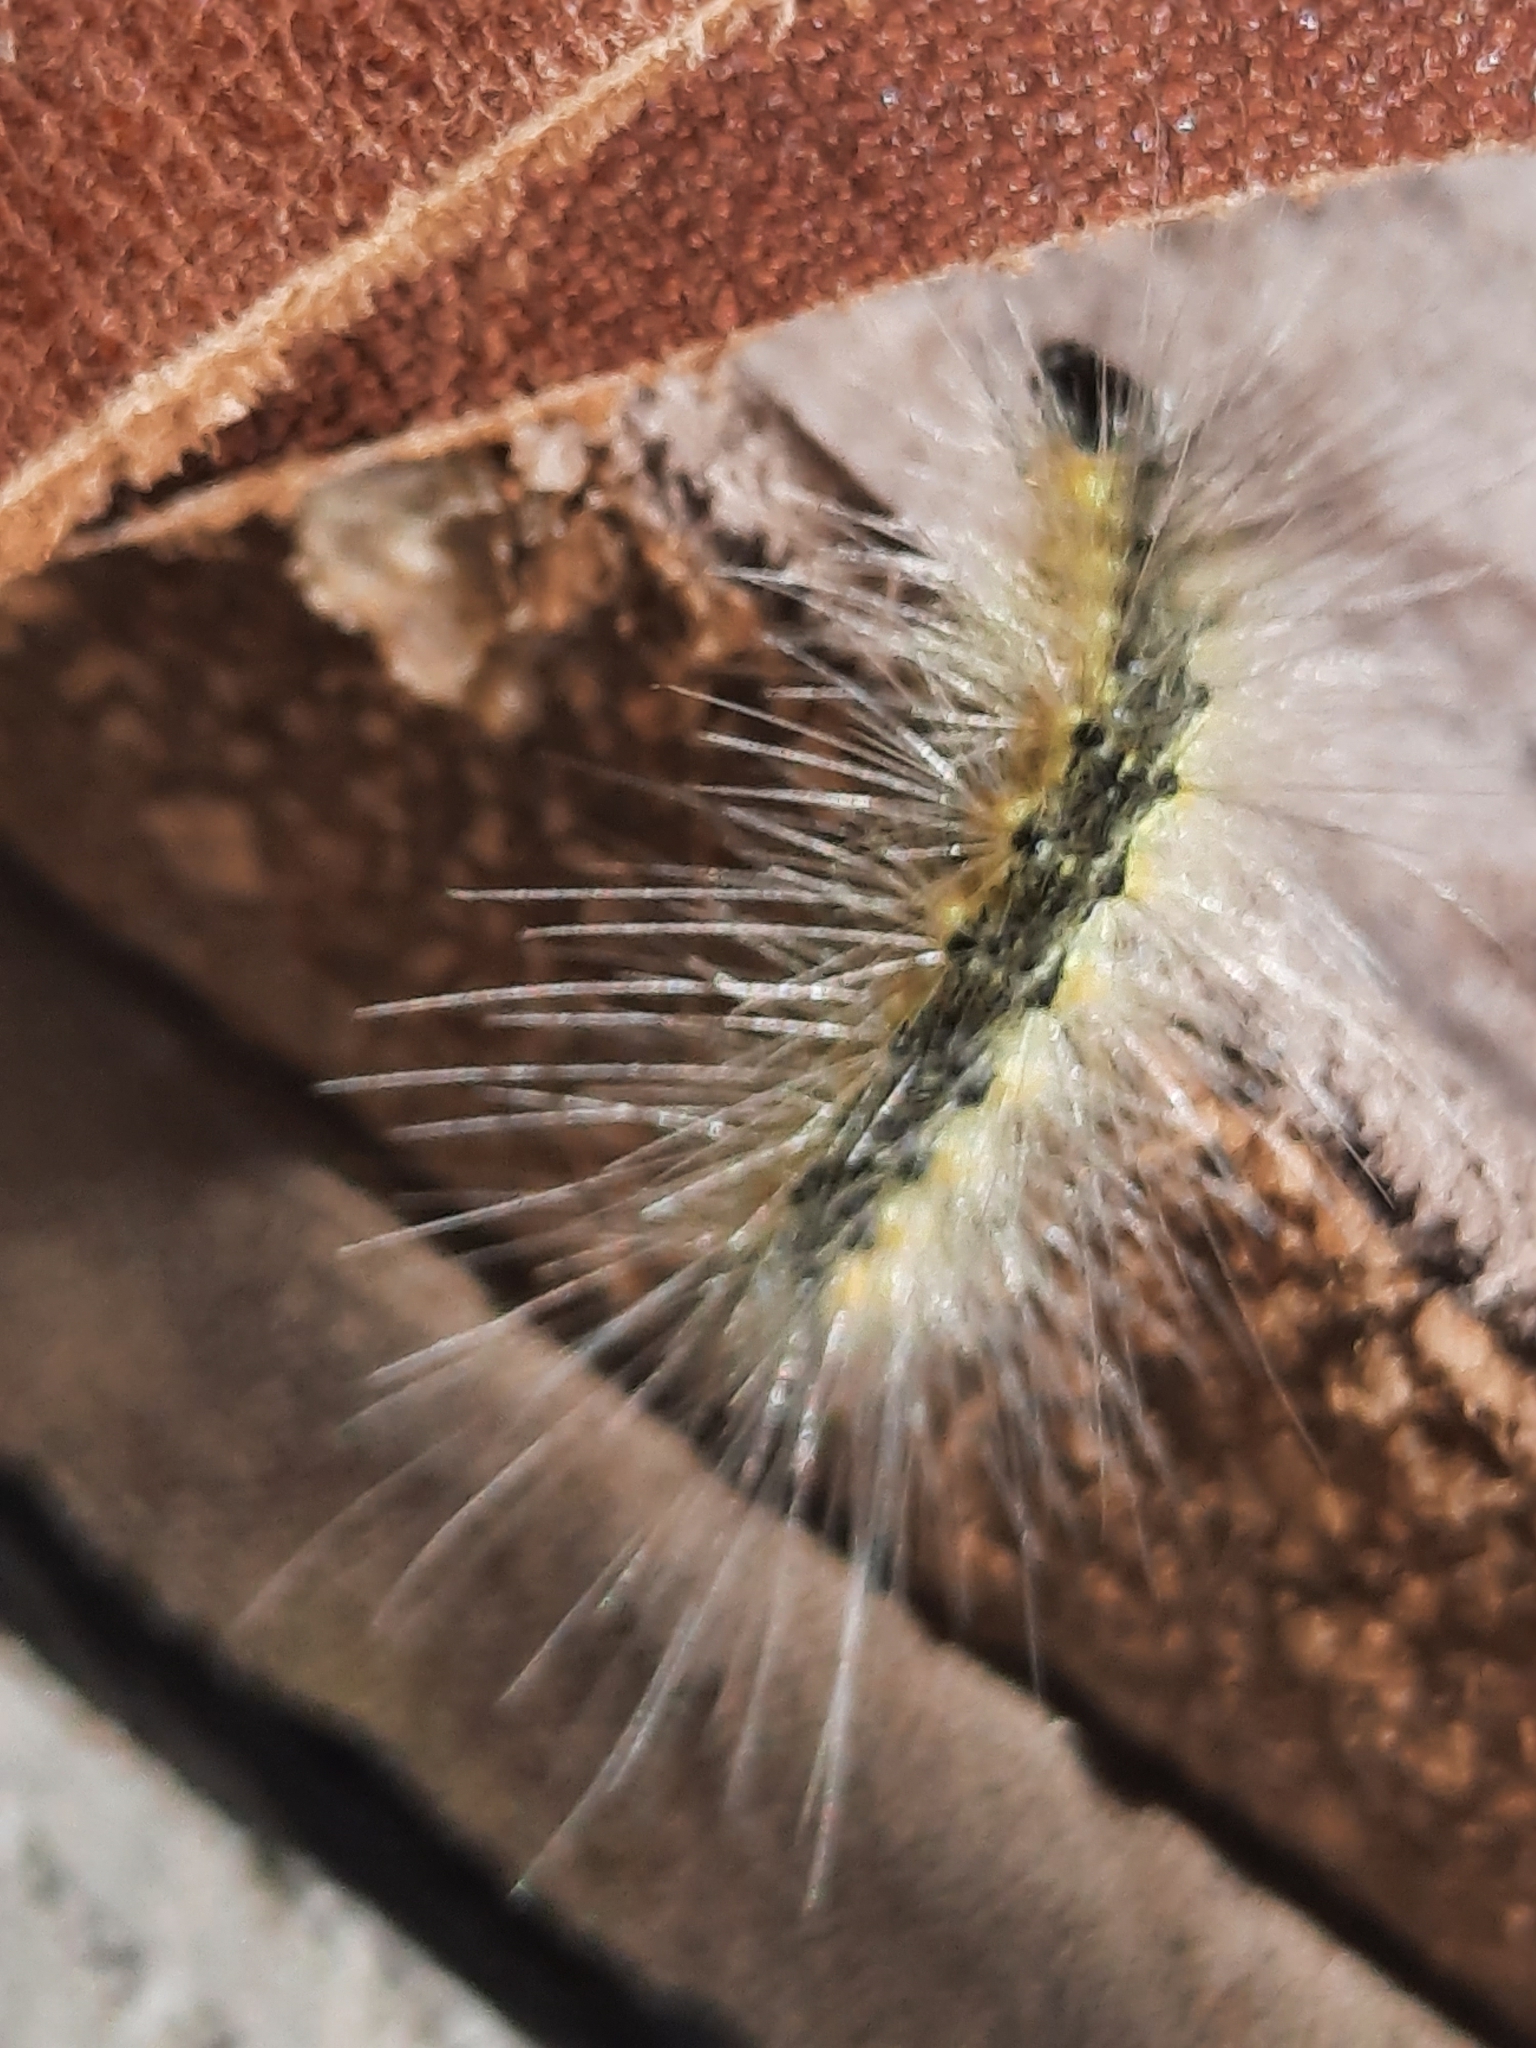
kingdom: Animalia
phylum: Arthropoda
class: Insecta
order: Lepidoptera
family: Erebidae
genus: Hyphantria
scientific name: Hyphantria cunea
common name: American white moth
